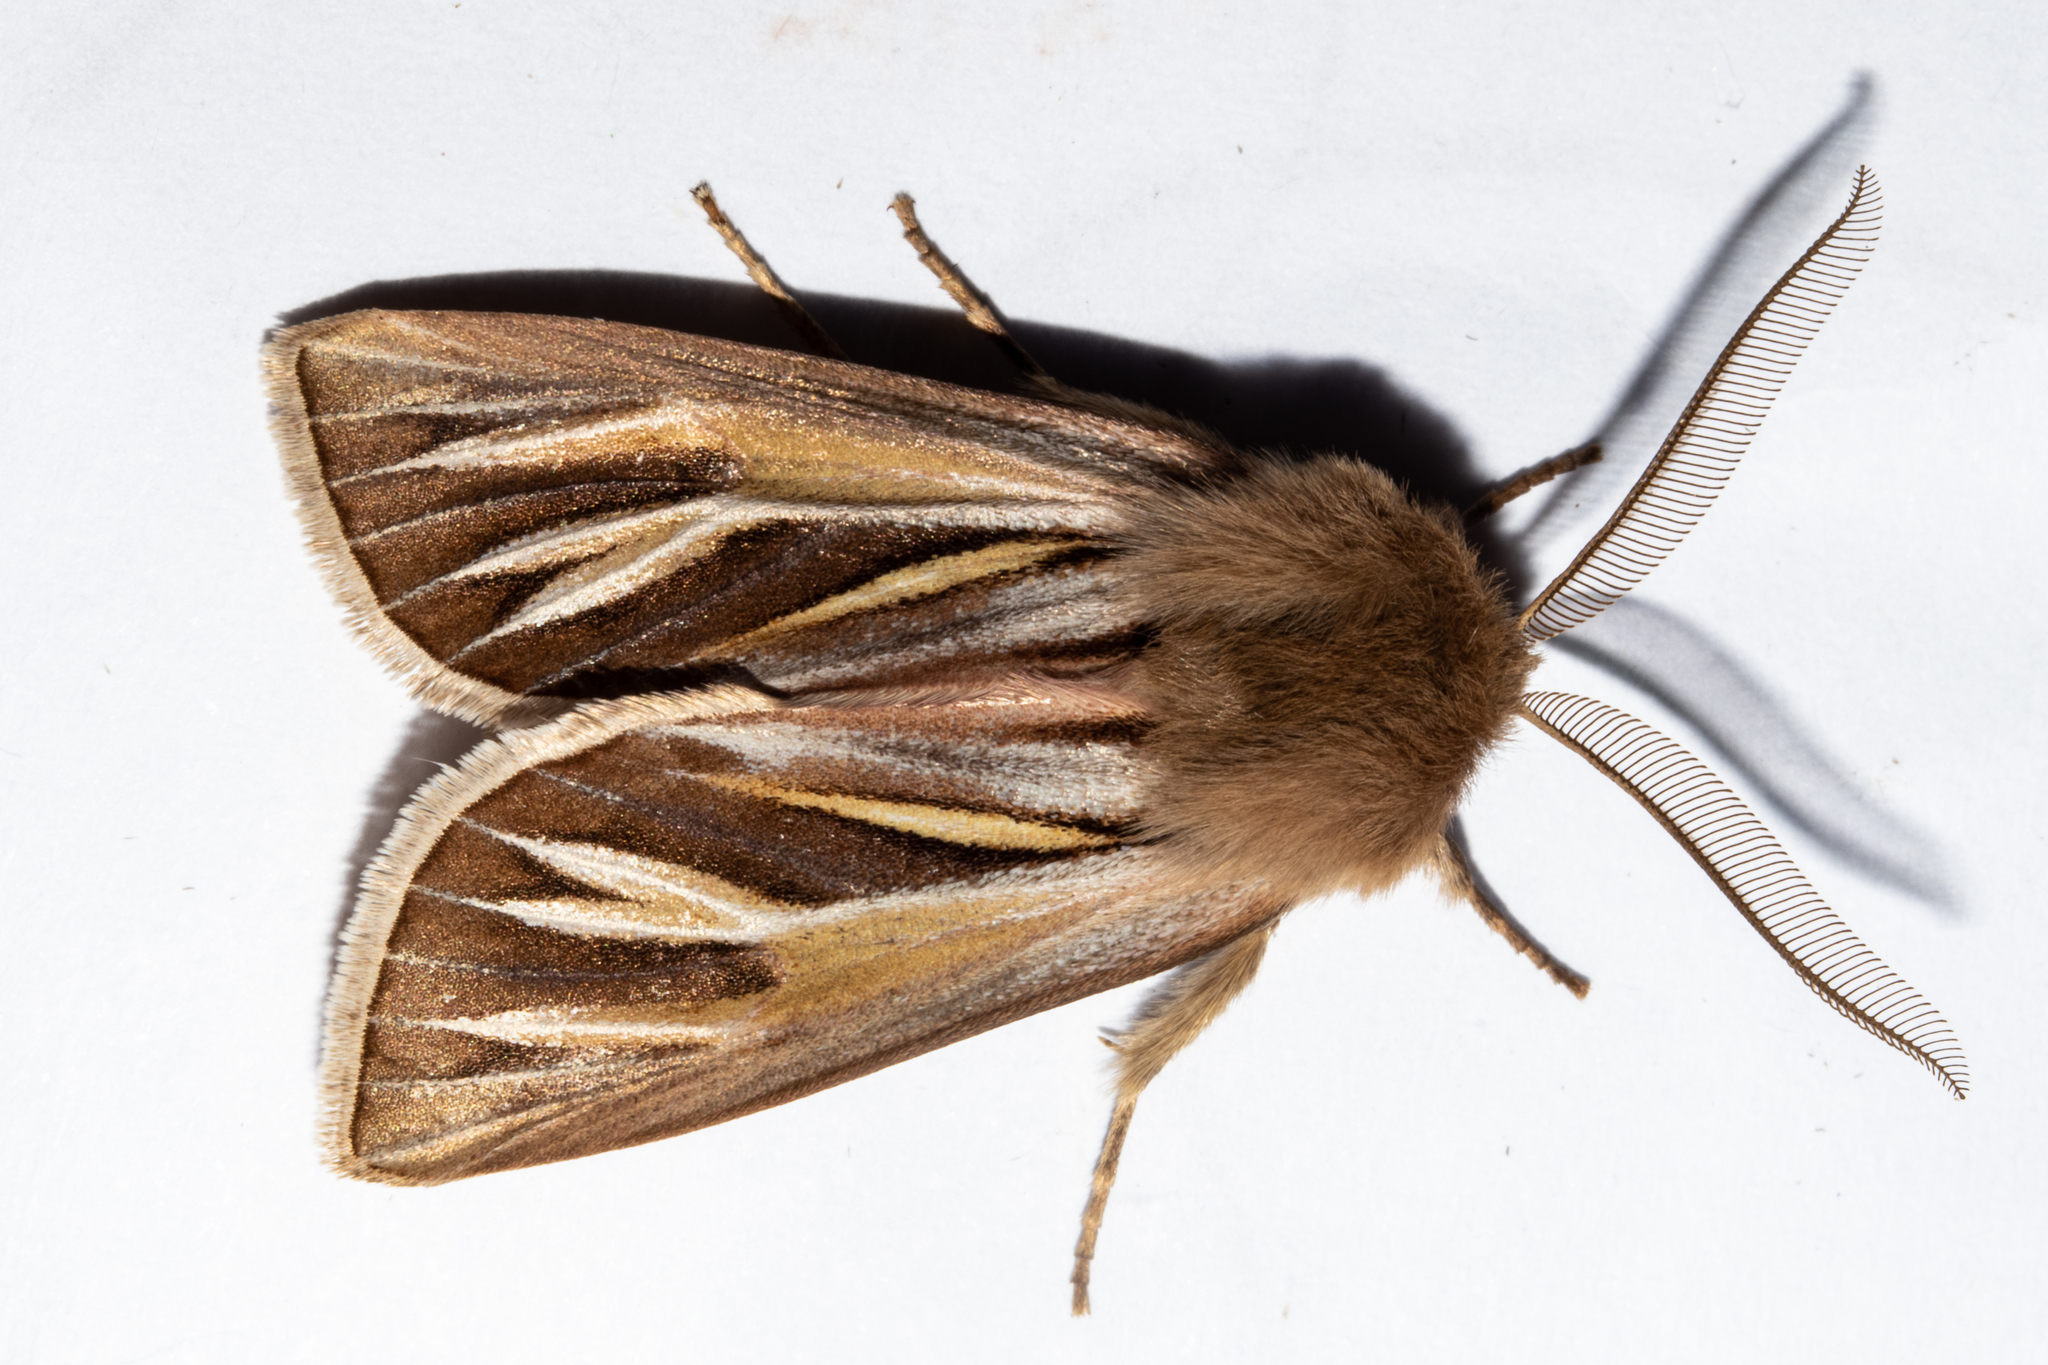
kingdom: Animalia
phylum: Arthropoda
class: Insecta
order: Lepidoptera
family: Noctuidae
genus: Ichneutica
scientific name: Ichneutica caraunias
